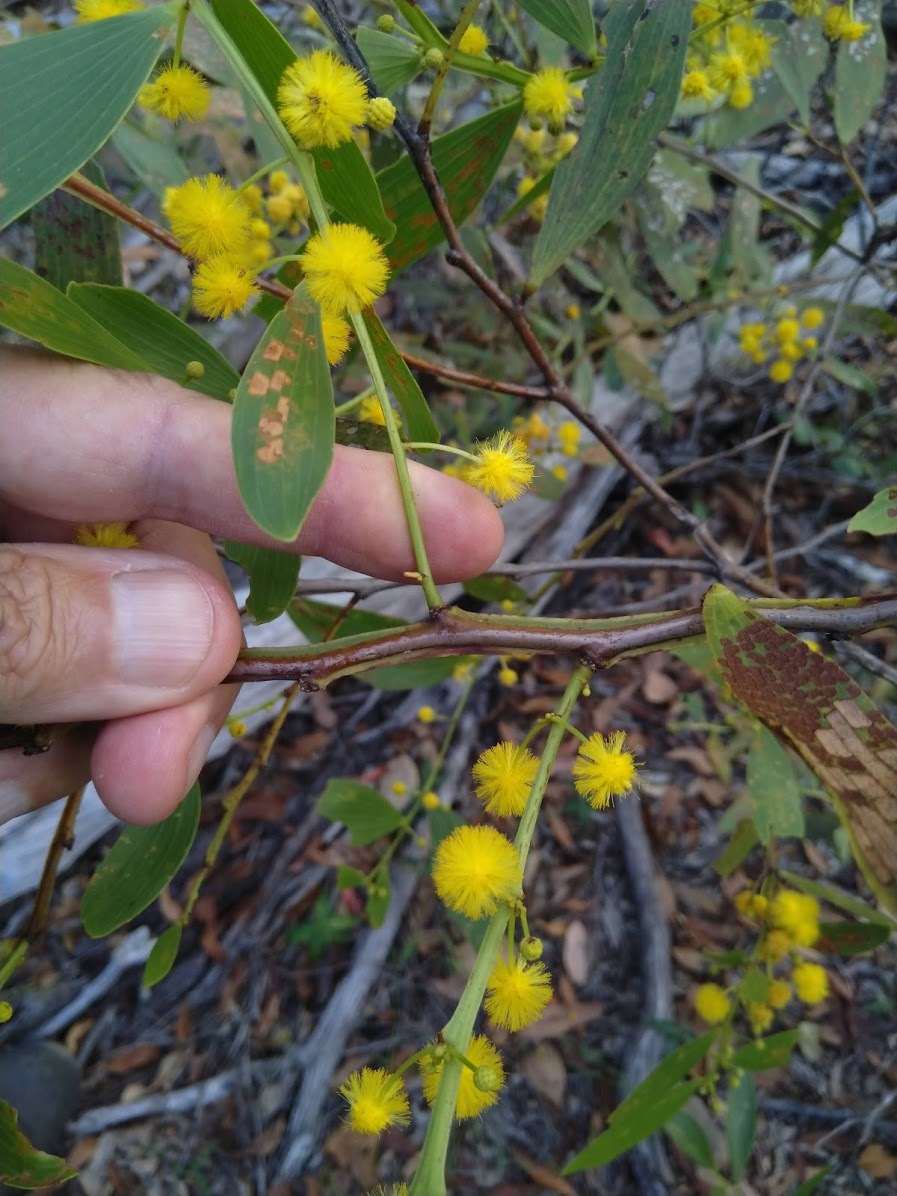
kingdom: Plantae
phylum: Tracheophyta
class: Magnoliopsida
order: Fabales
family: Fabaceae
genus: Acacia
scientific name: Acacia complanata
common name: Flat-stemmed wattle
